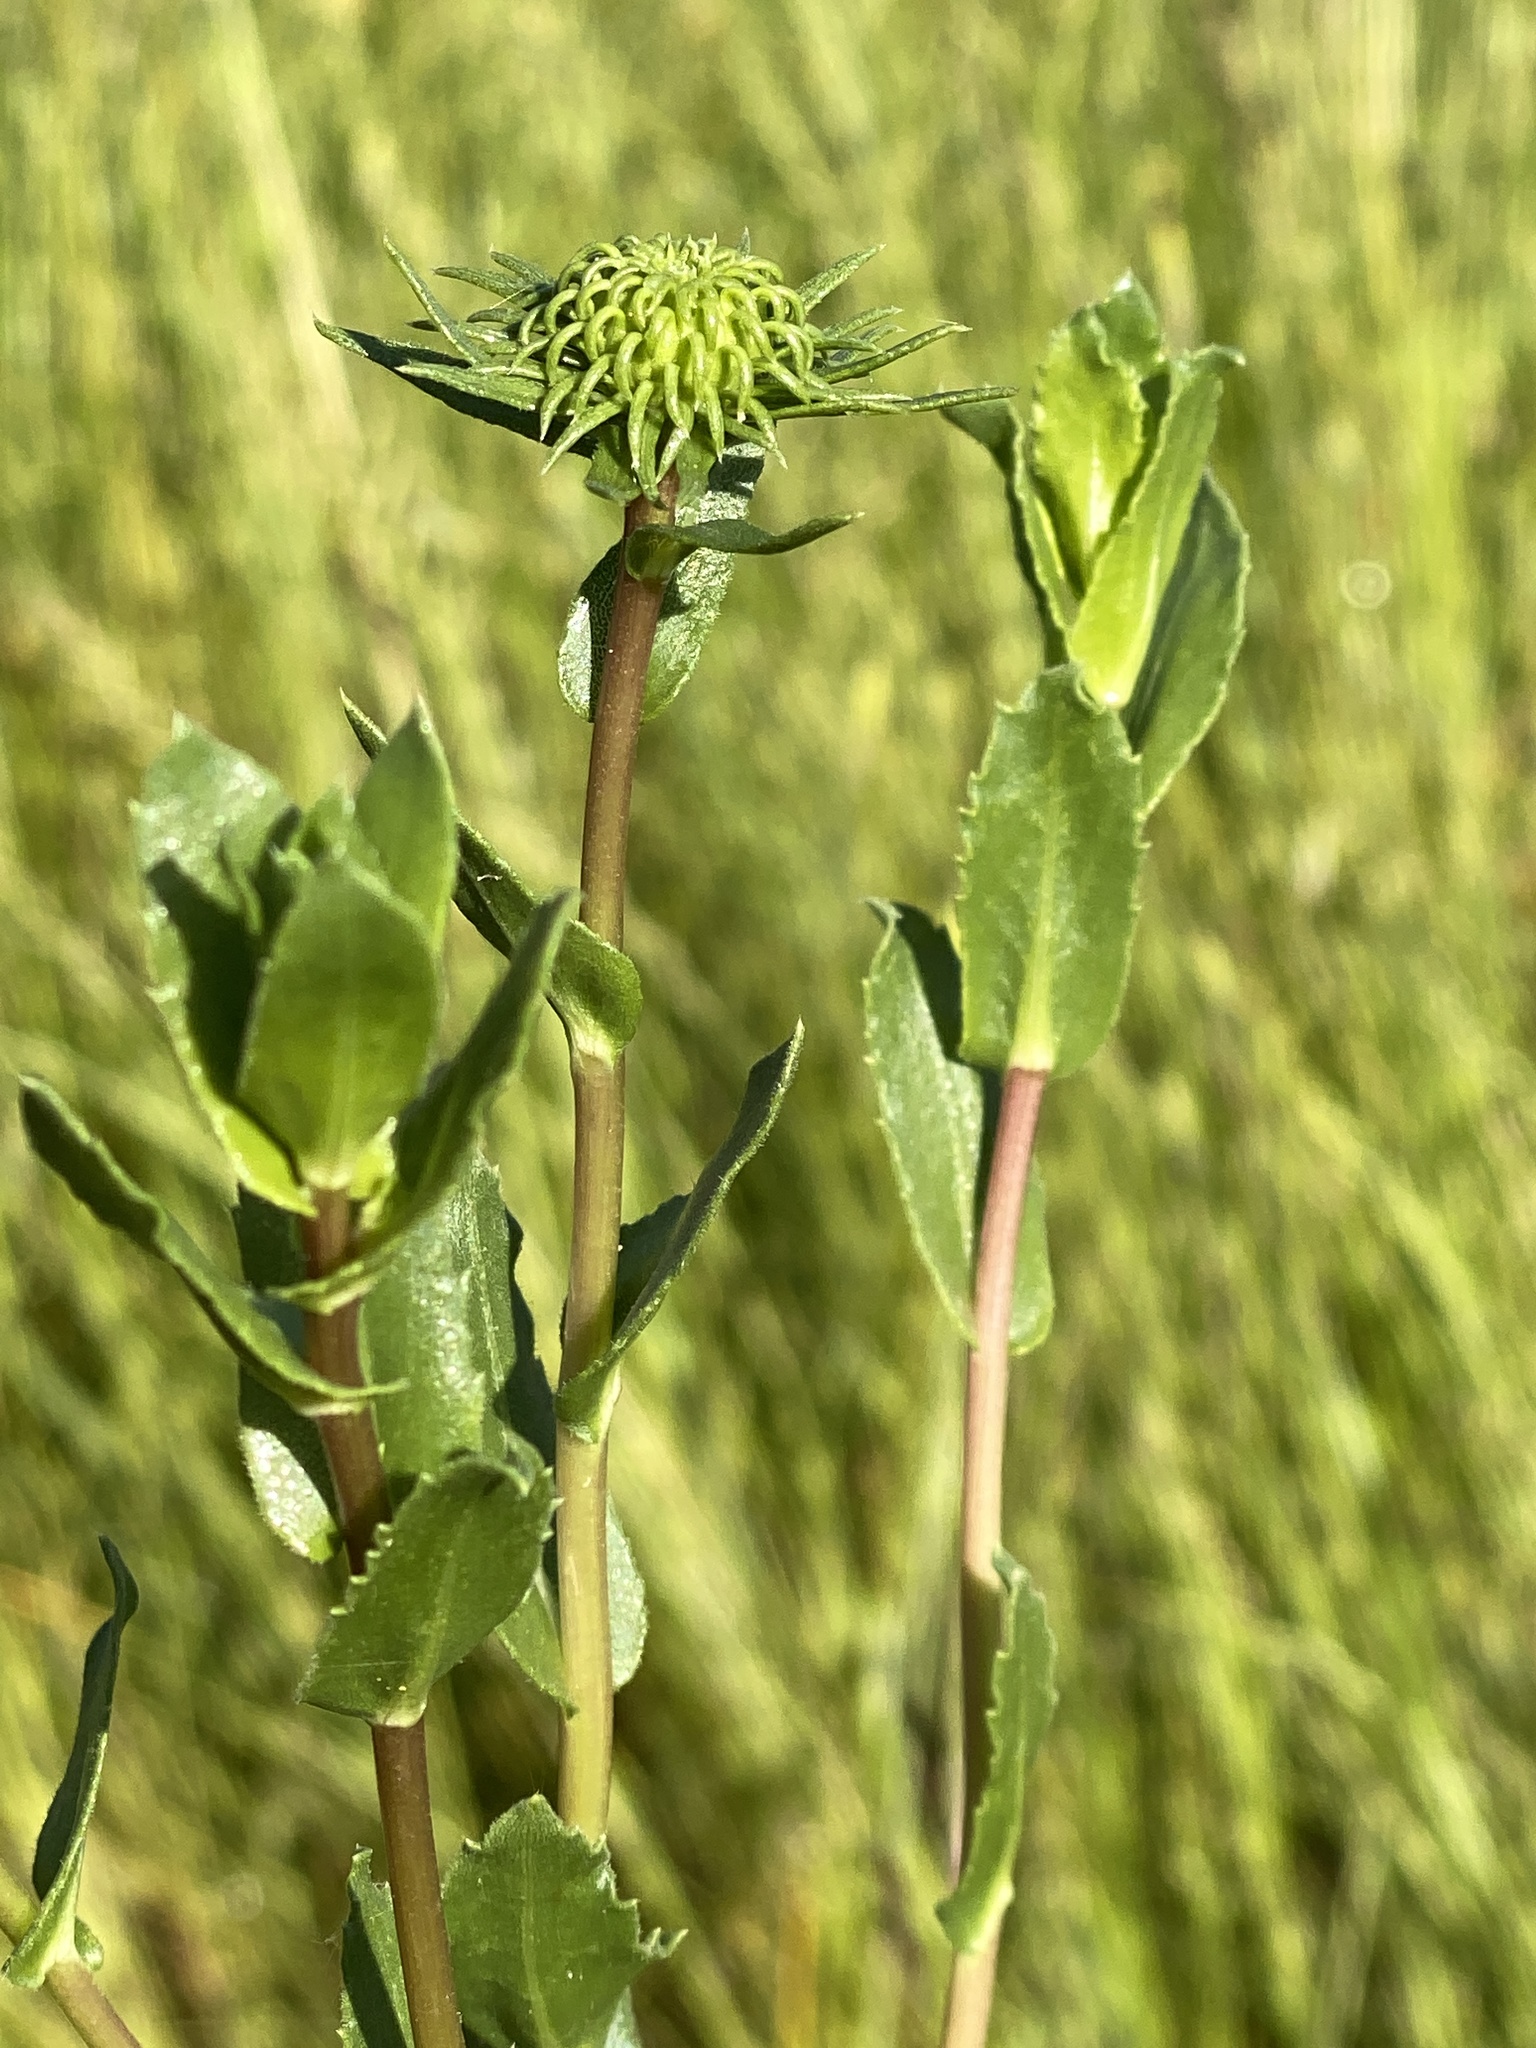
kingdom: Plantae
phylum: Tracheophyta
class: Magnoliopsida
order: Asterales
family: Asteraceae
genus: Grindelia
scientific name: Grindelia hirsutula
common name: Hairy gumweed
